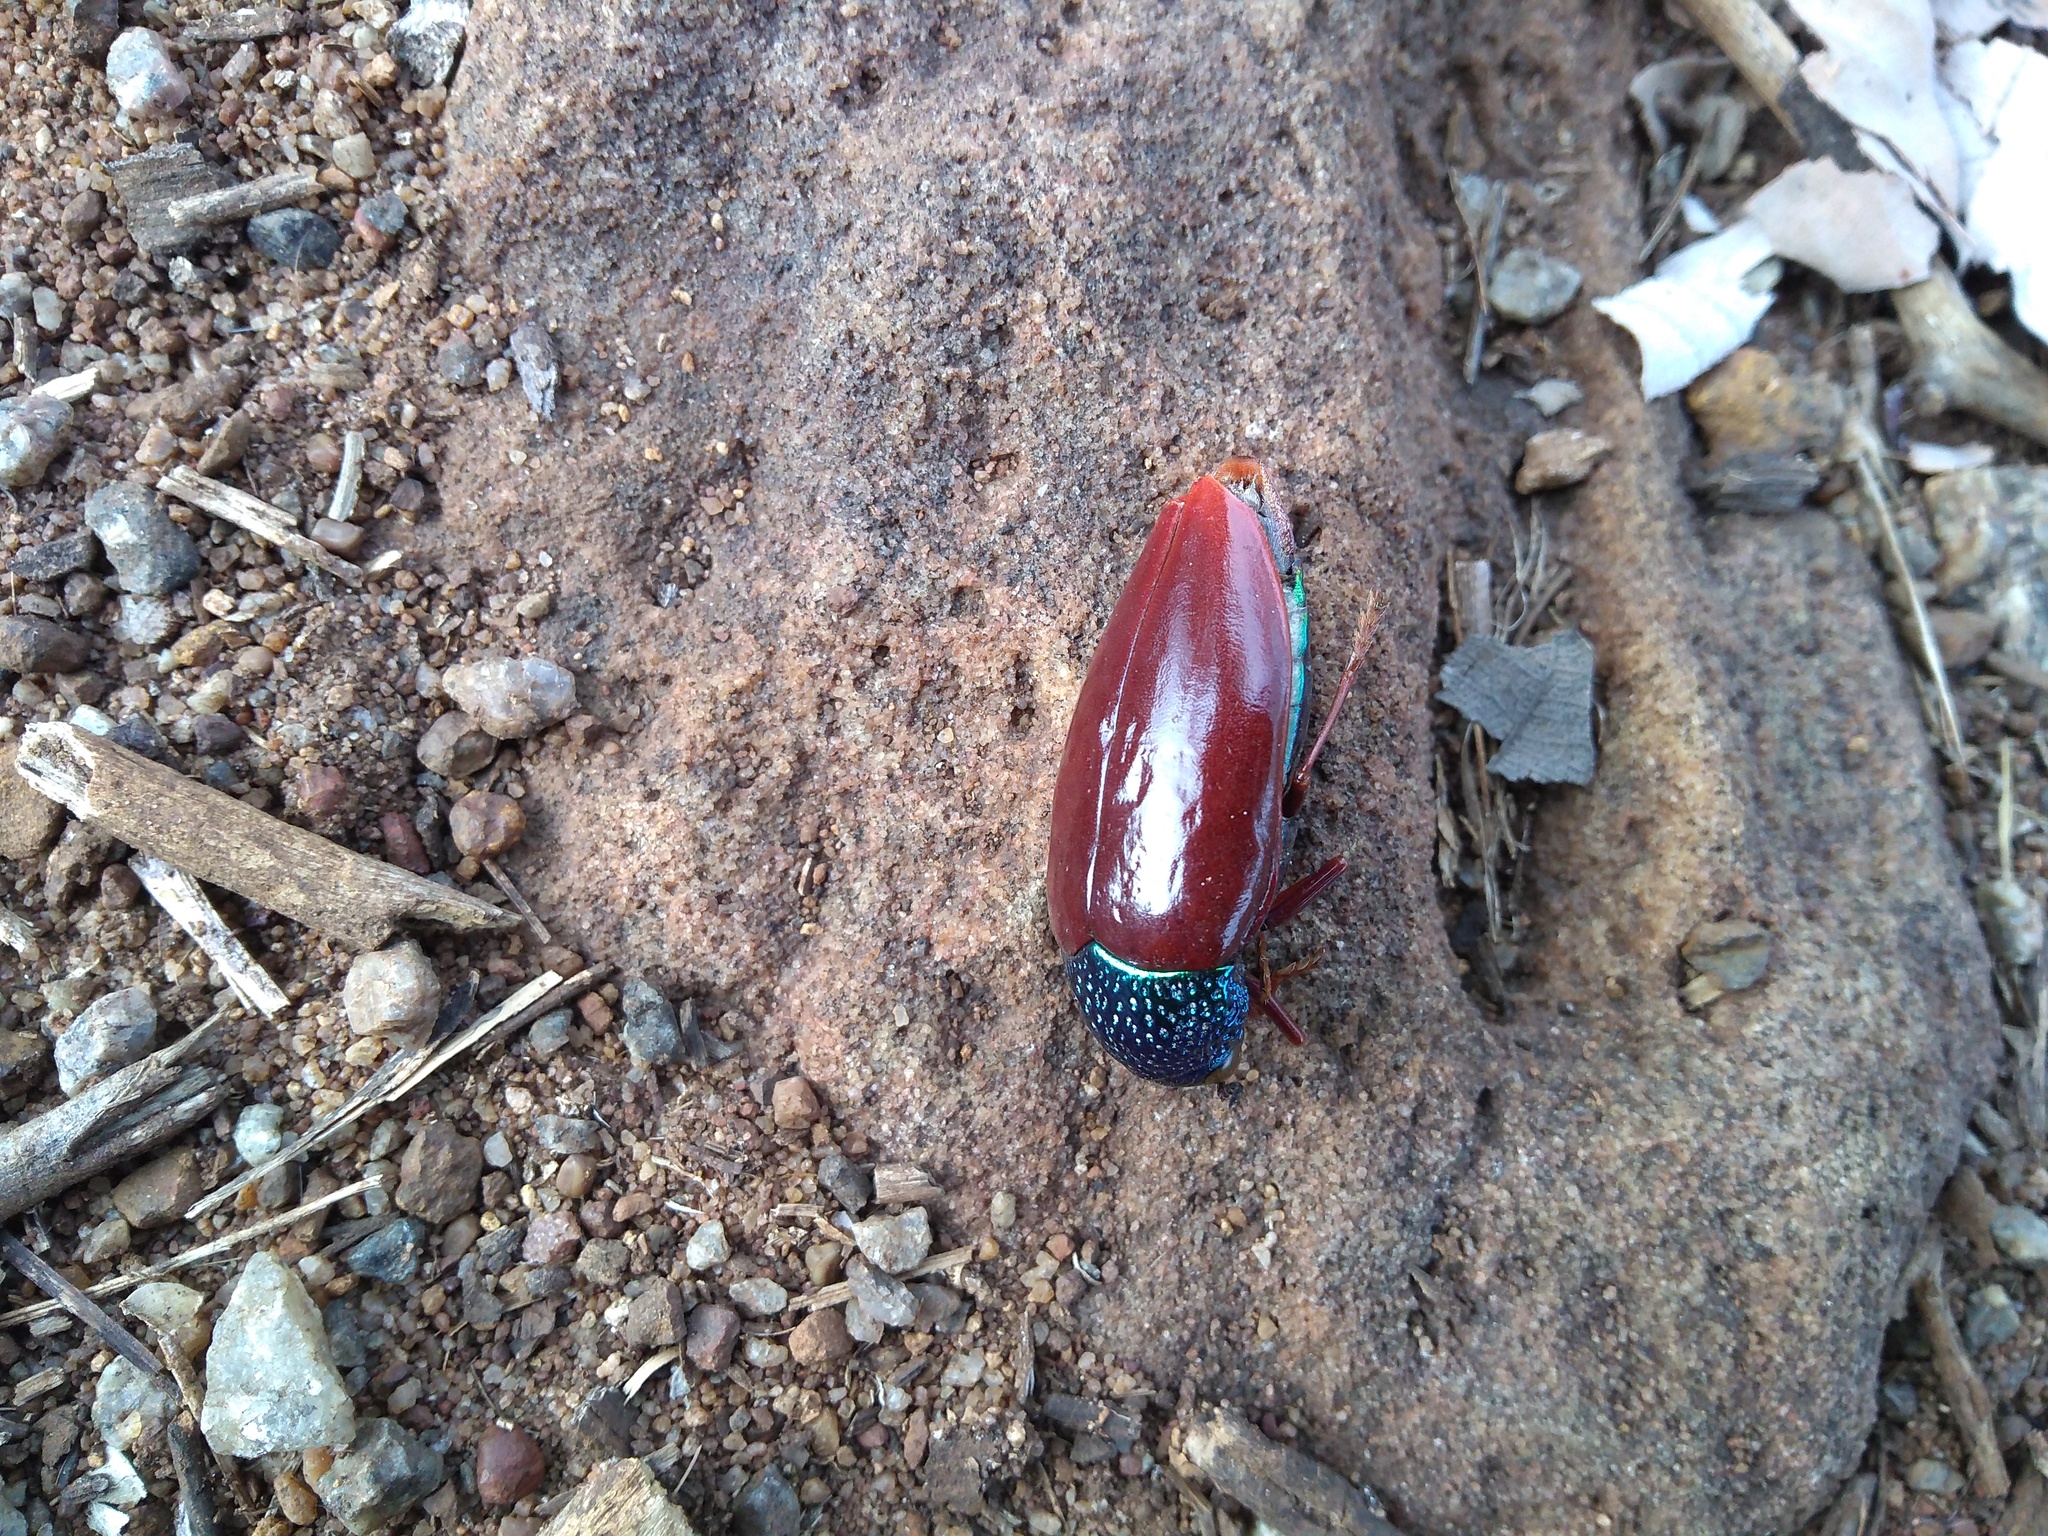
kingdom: Animalia
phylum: Arthropoda
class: Insecta
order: Coleoptera
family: Buprestidae
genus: Sternocera
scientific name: Sternocera chrysis
